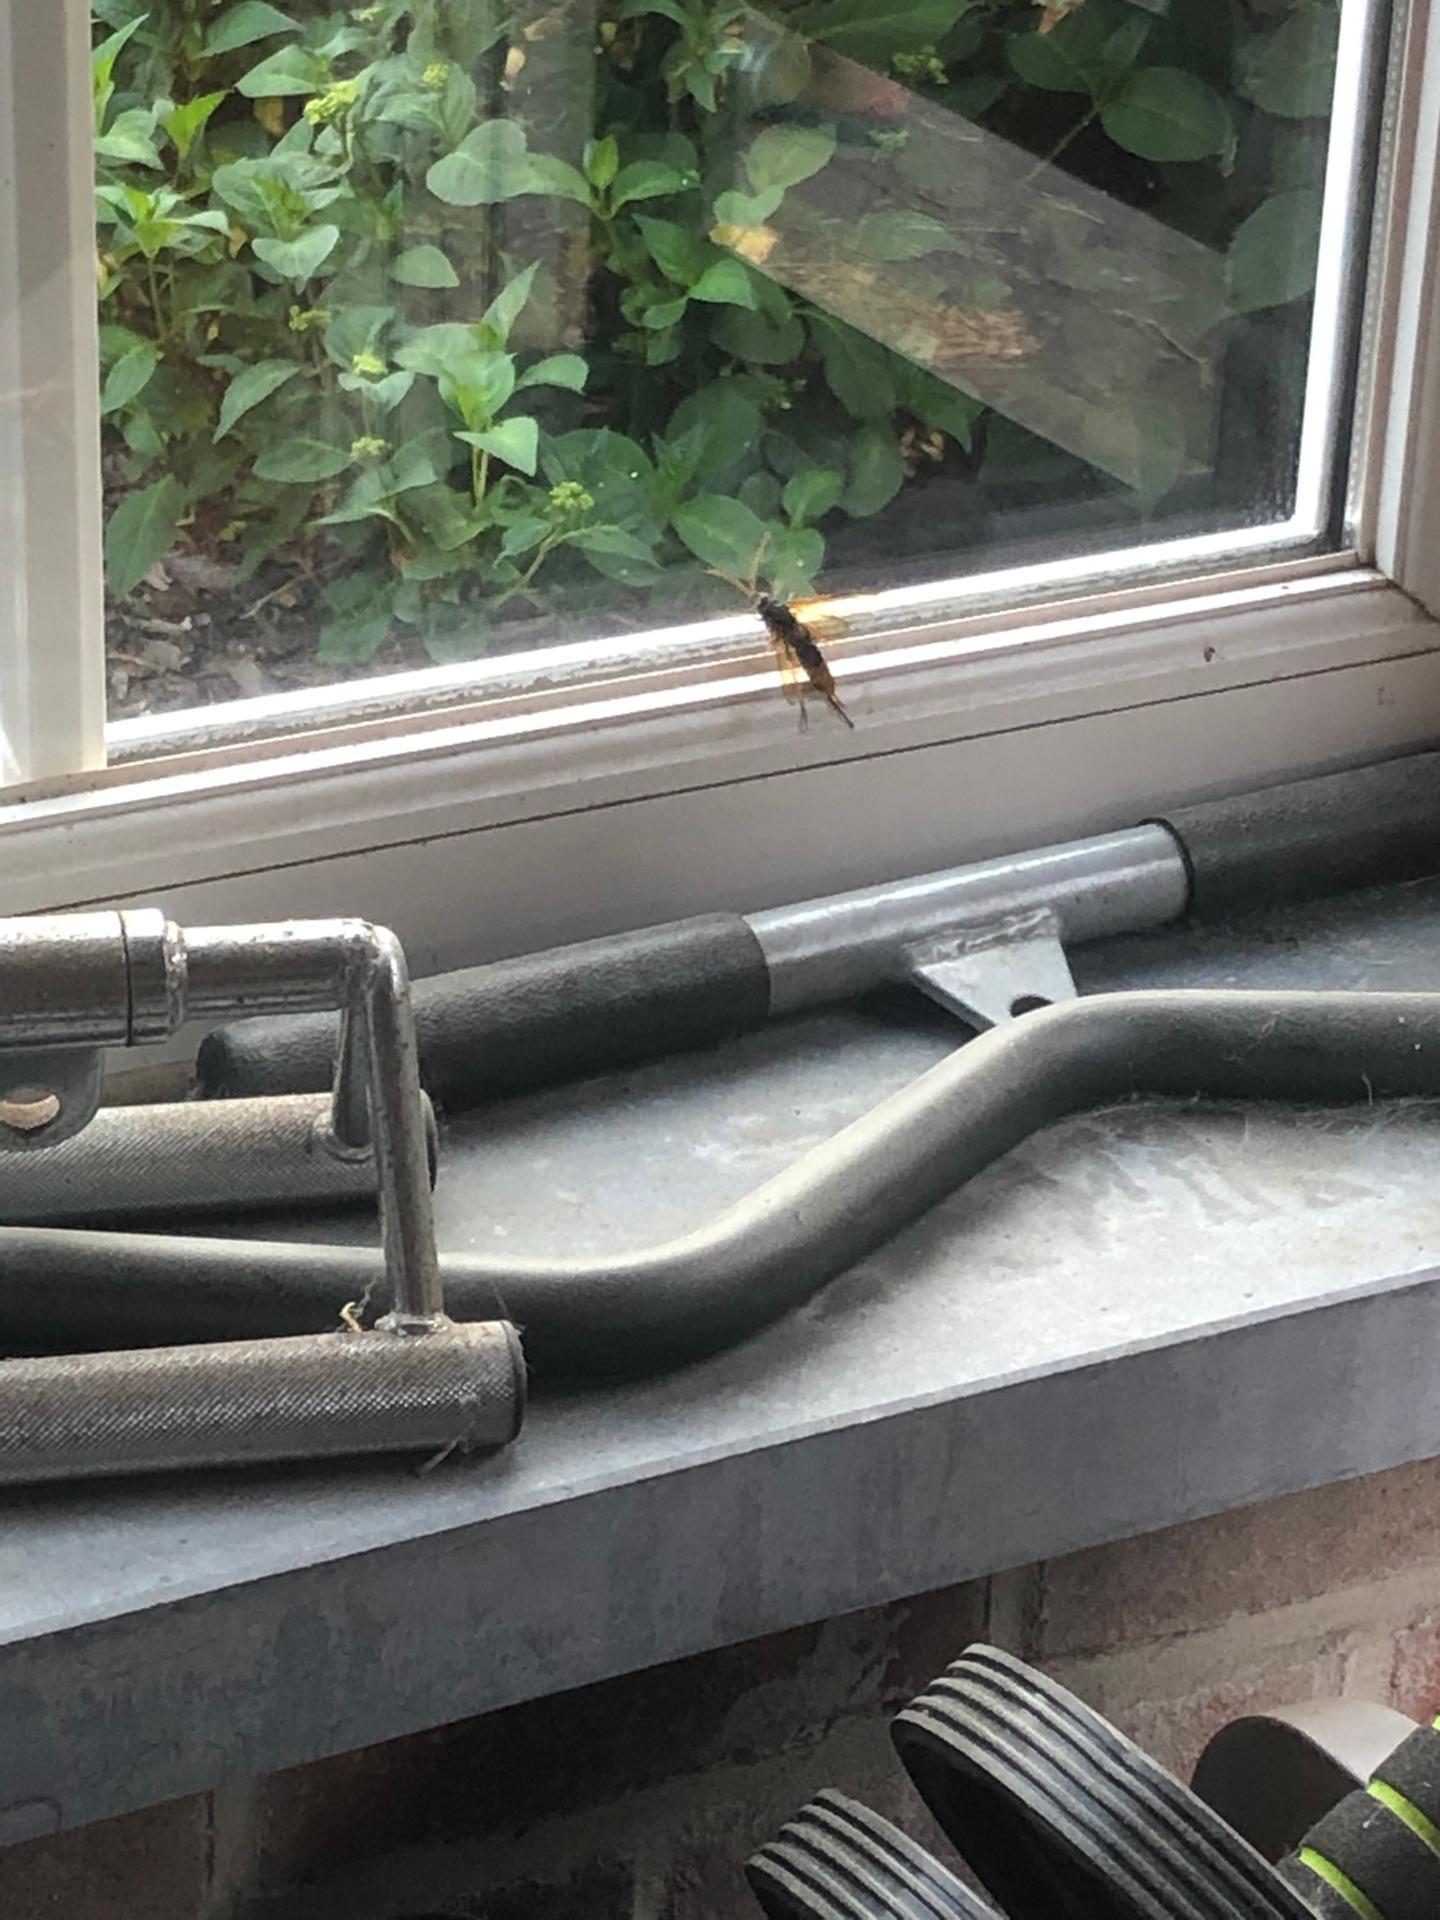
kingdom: Animalia
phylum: Arthropoda
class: Insecta
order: Hymenoptera
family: Siricidae
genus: Urocerus
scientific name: Urocerus gigas
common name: Giant woodwasp
